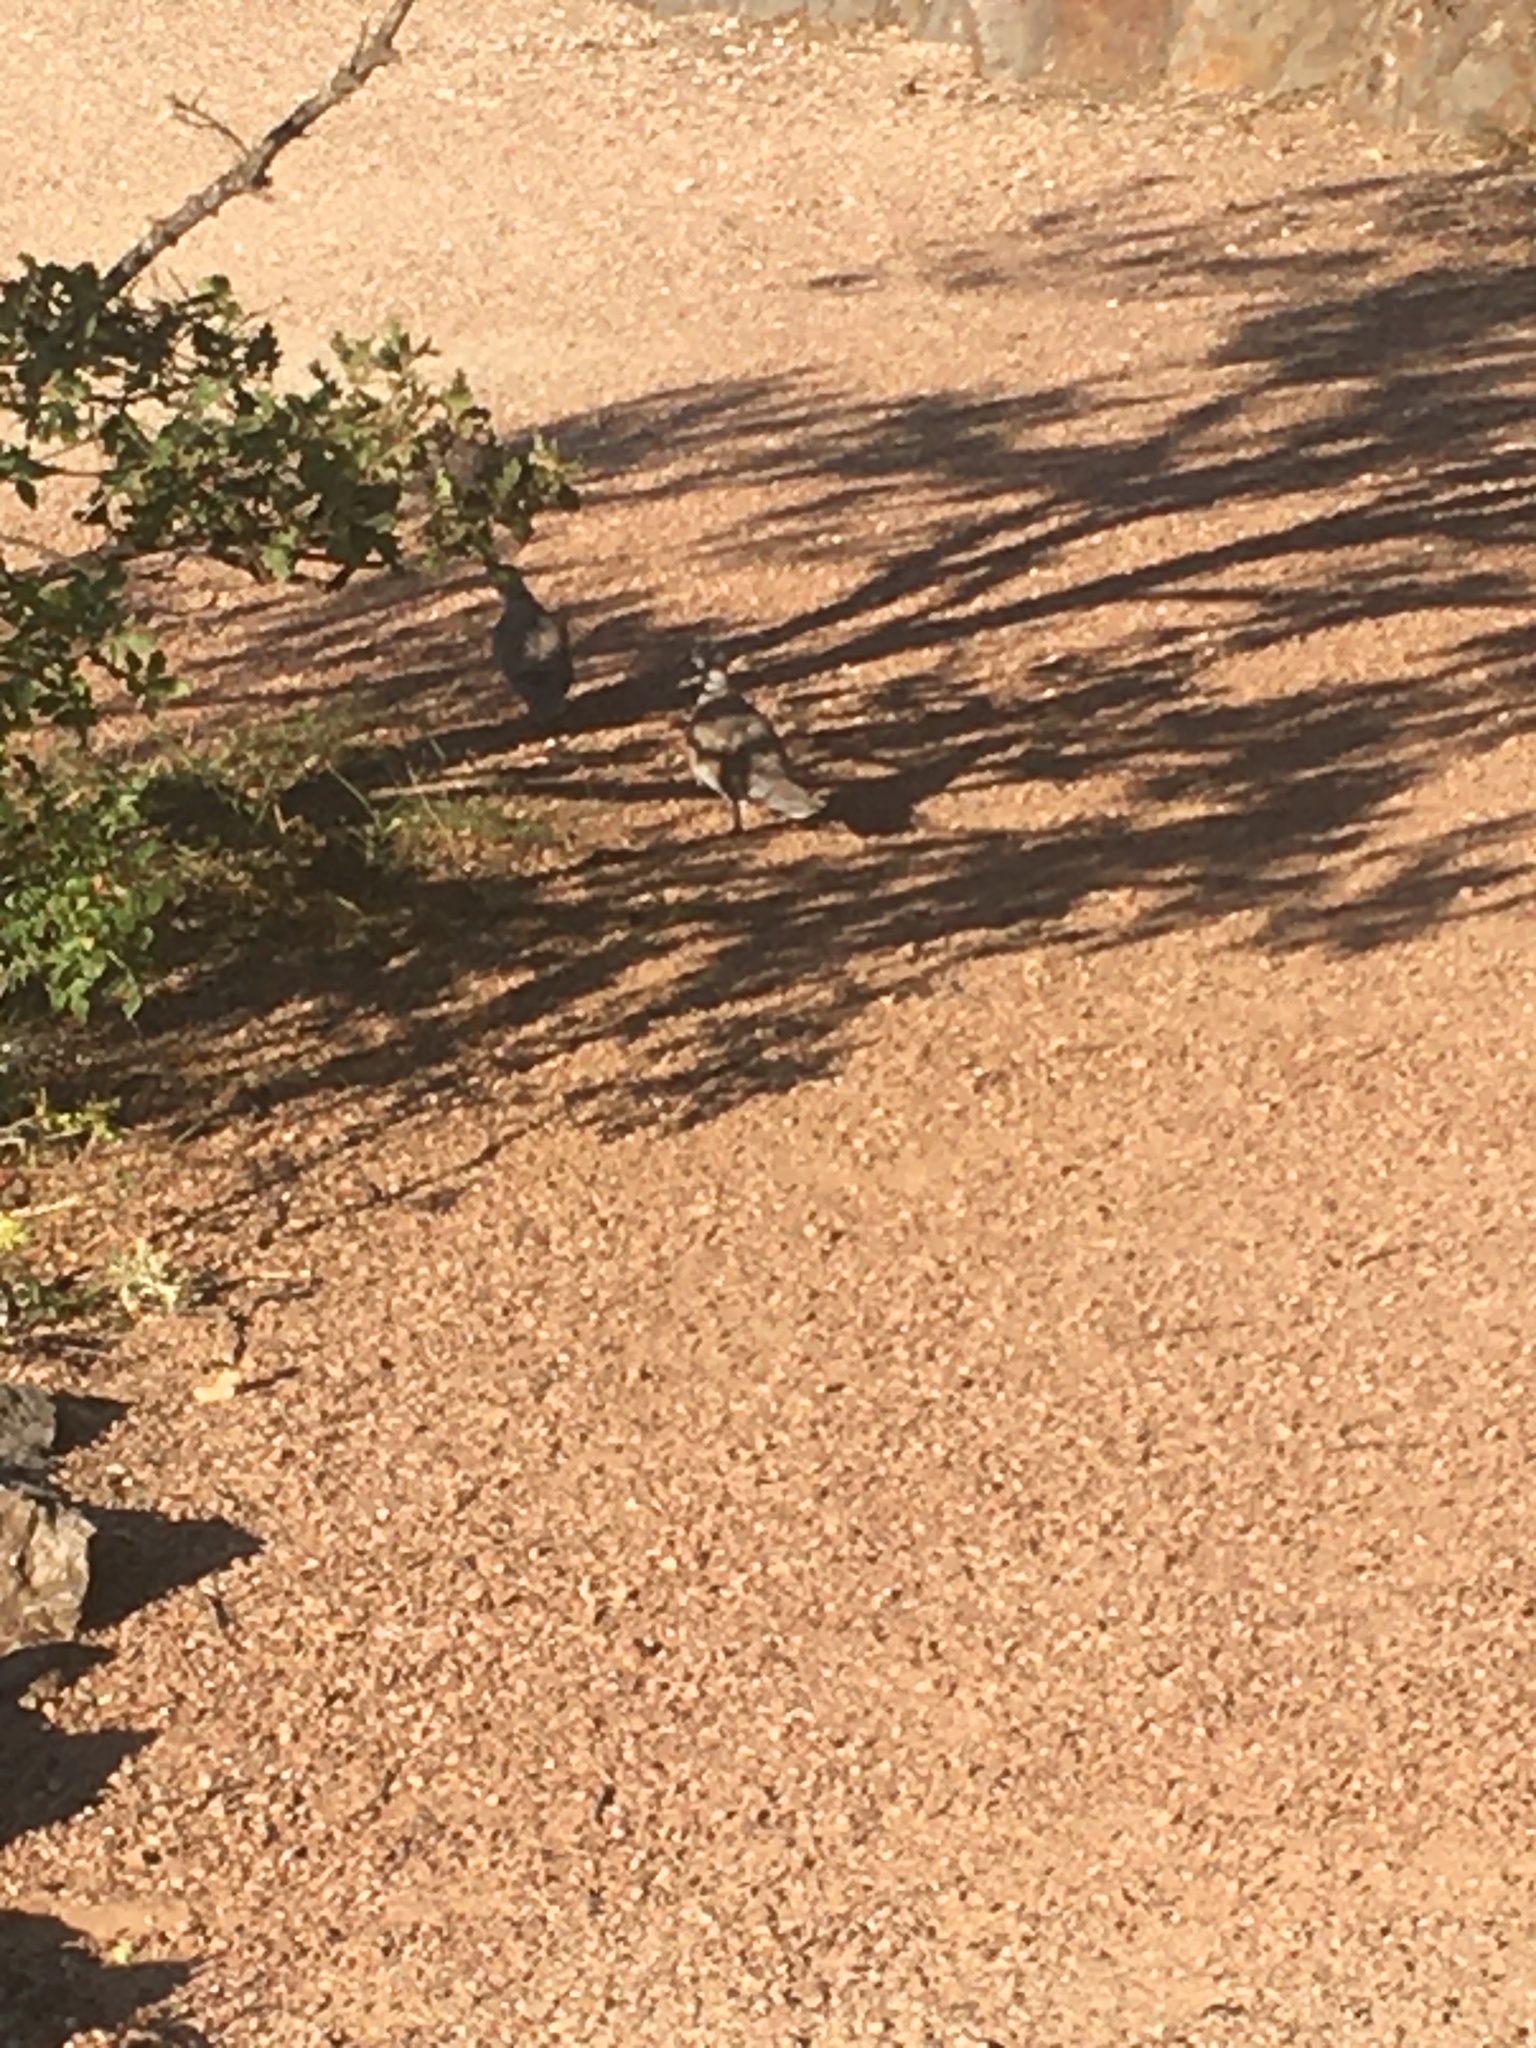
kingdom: Animalia
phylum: Chordata
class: Aves
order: Columbiformes
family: Columbidae
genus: Streptopelia
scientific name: Streptopelia decaocto
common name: Eurasian collared dove
